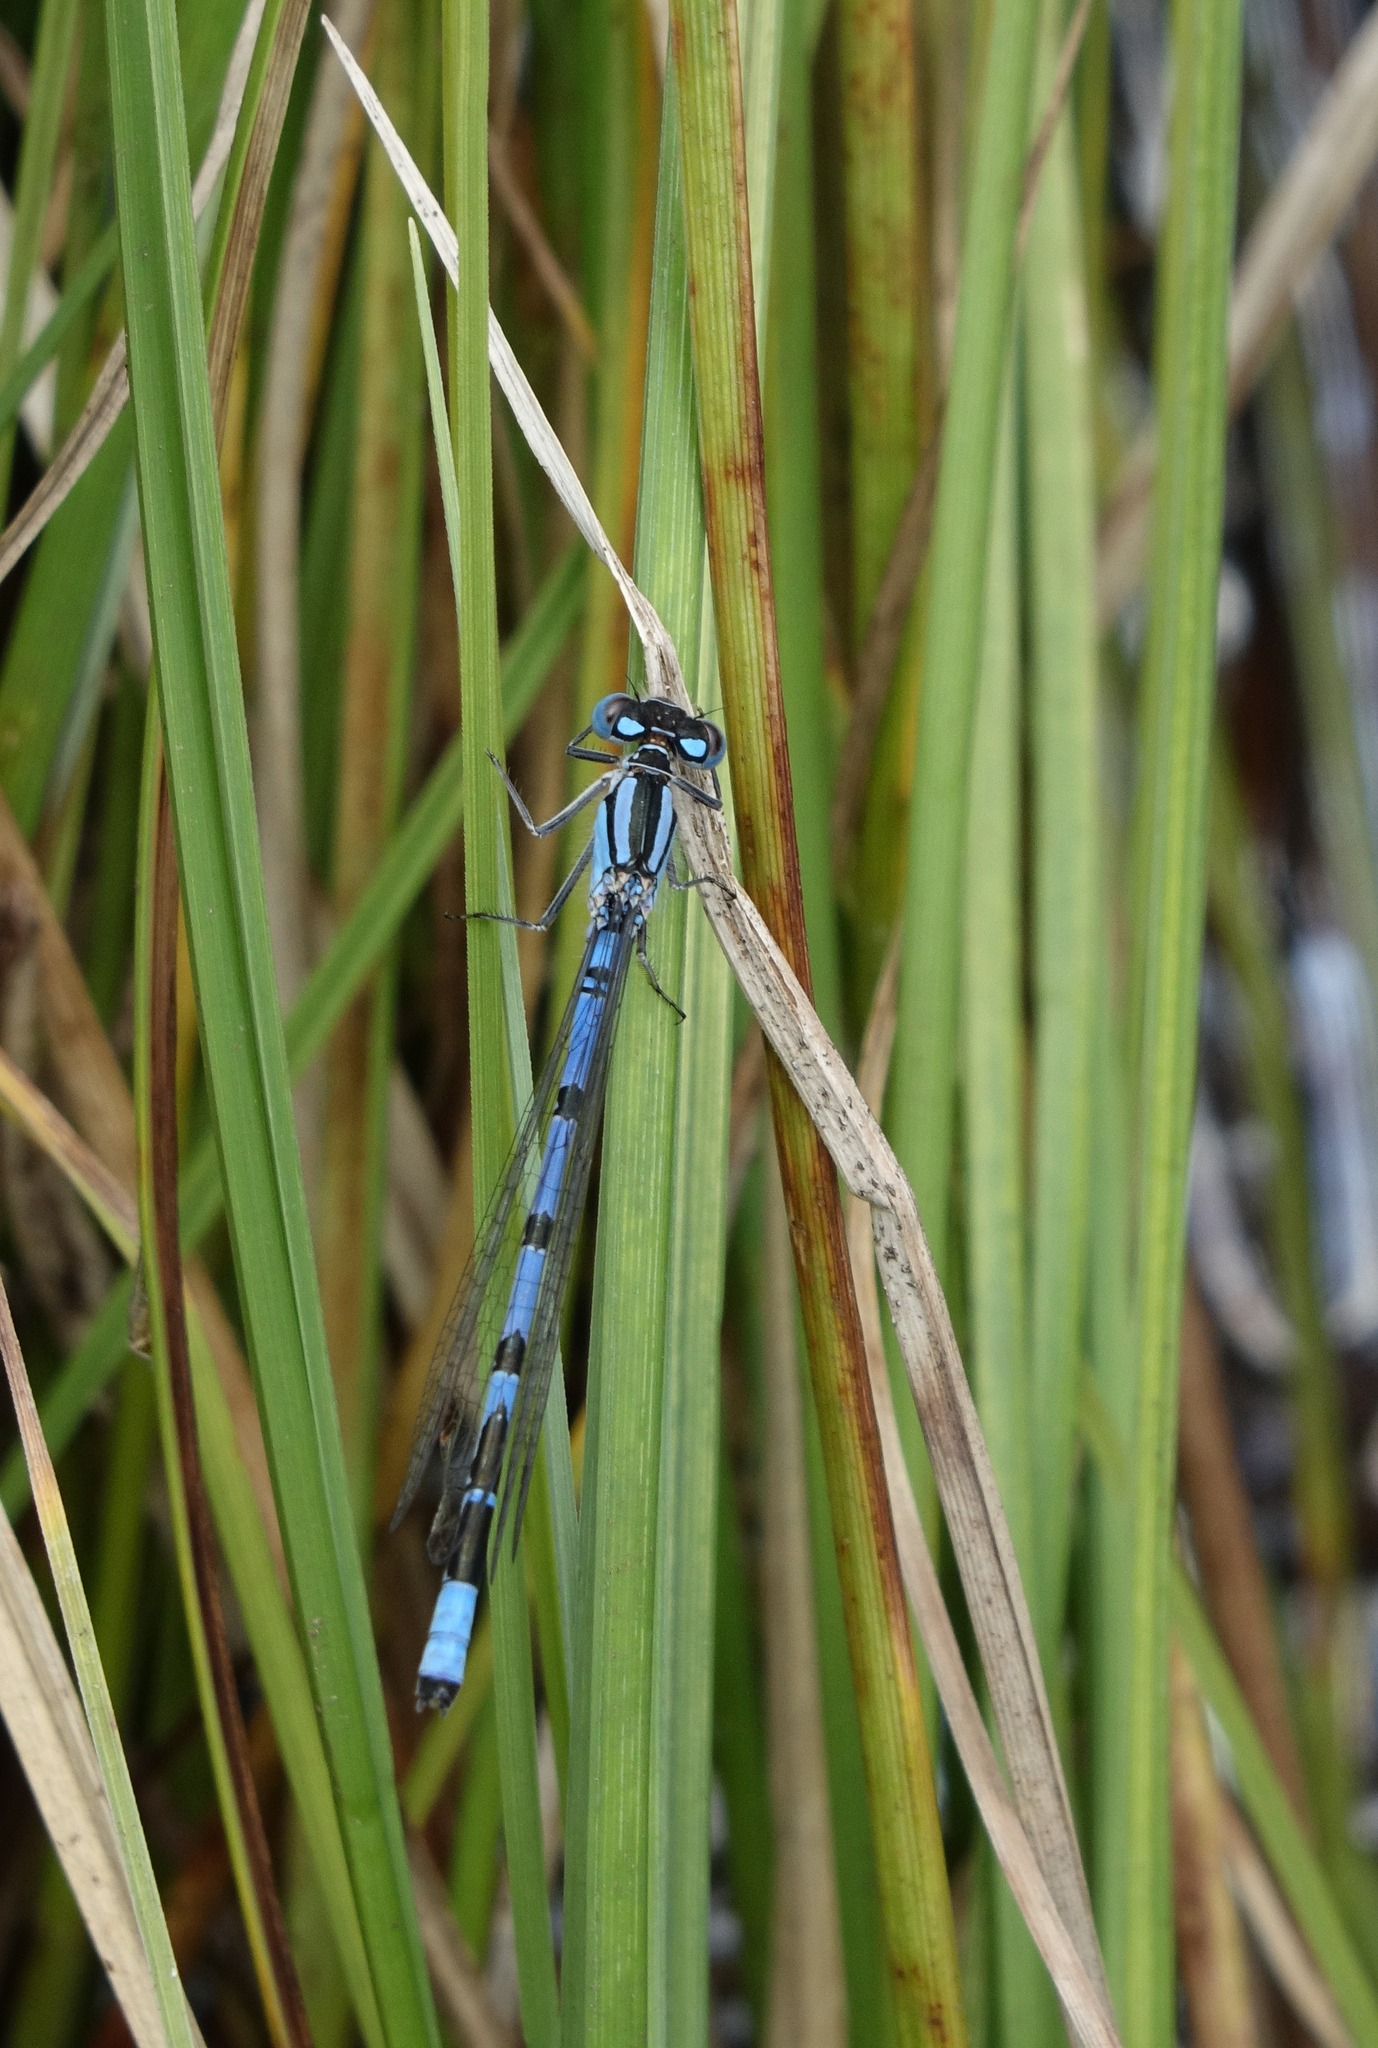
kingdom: Animalia
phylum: Arthropoda
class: Insecta
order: Odonata
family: Coenagrionidae
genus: Enallagma
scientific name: Enallagma cyathigerum
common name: Common blue damselfly
